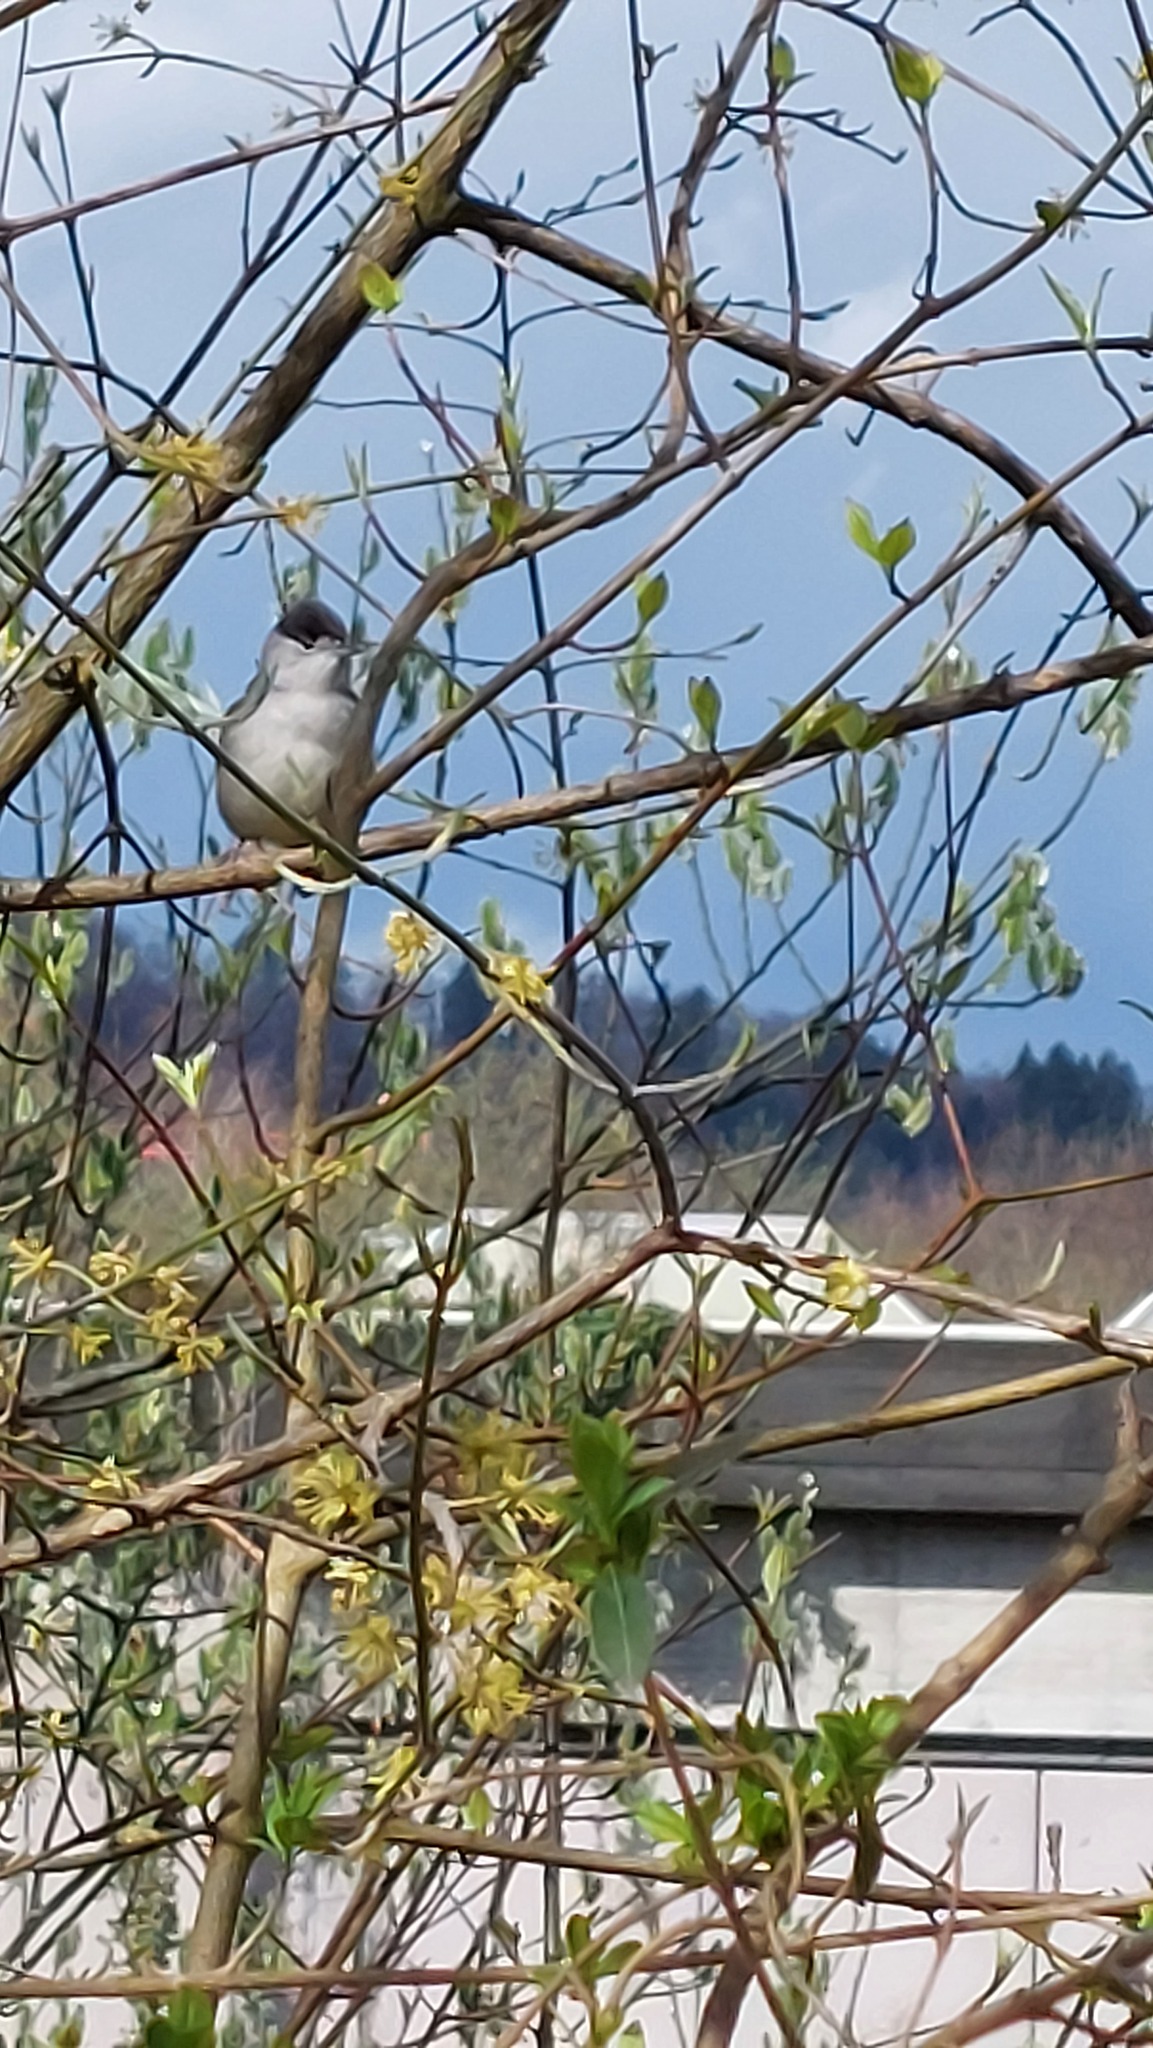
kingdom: Animalia
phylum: Chordata
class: Aves
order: Passeriformes
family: Sylviidae
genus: Sylvia
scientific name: Sylvia atricapilla
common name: Eurasian blackcap
